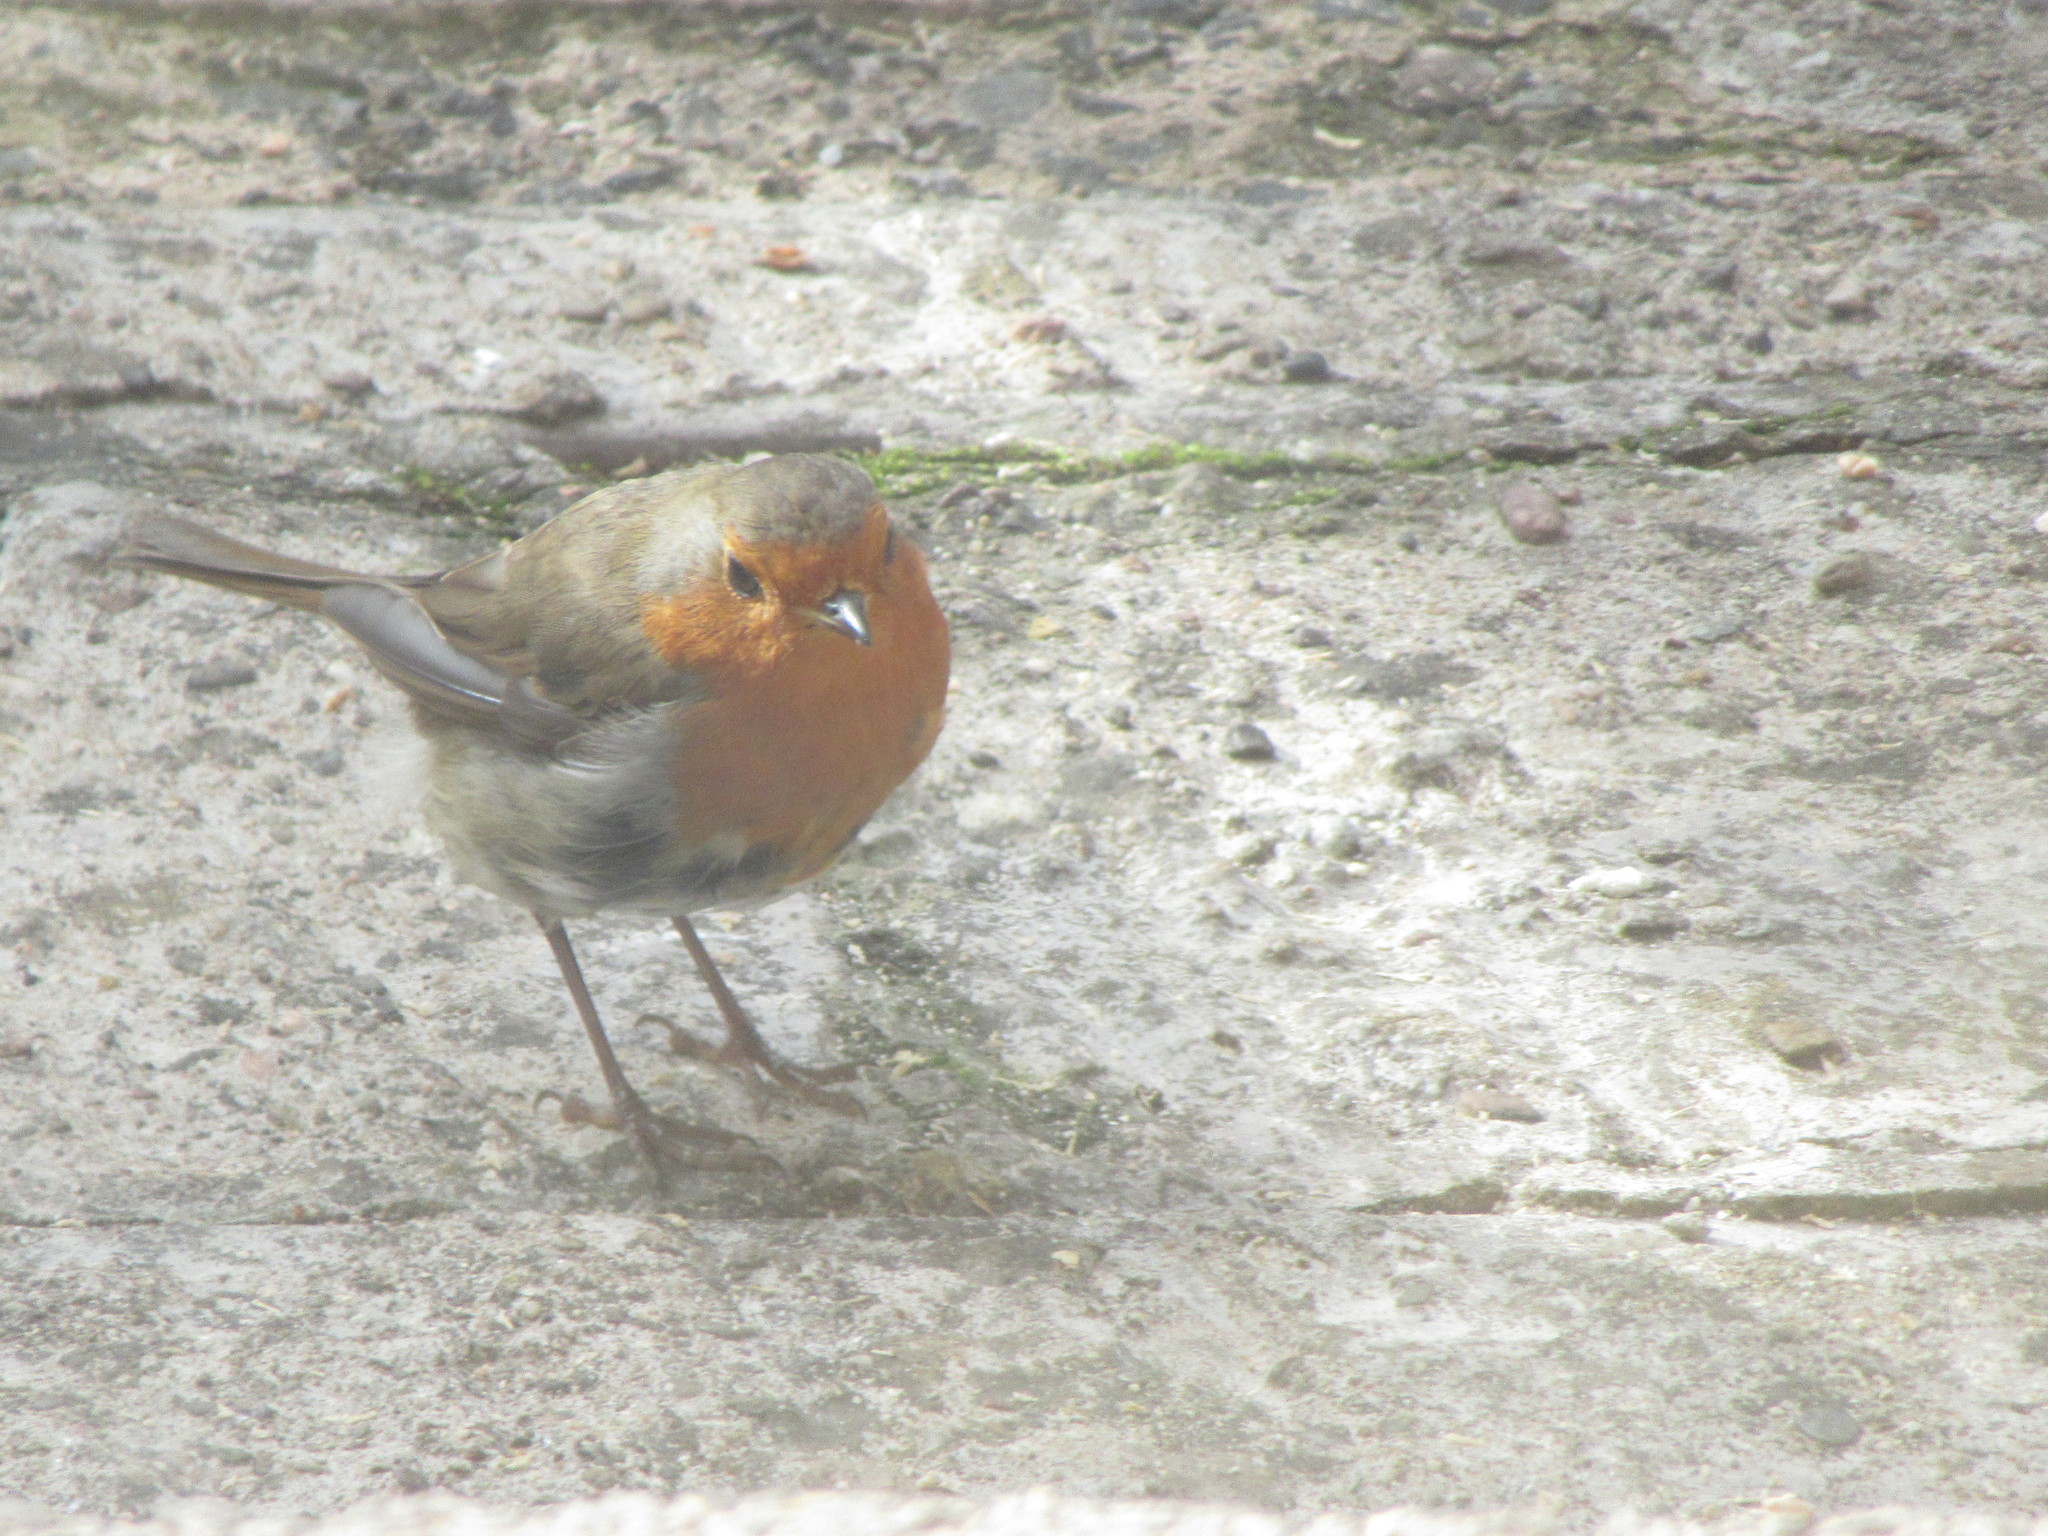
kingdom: Animalia
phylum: Chordata
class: Aves
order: Passeriformes
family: Muscicapidae
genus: Erithacus
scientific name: Erithacus rubecula
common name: European robin
